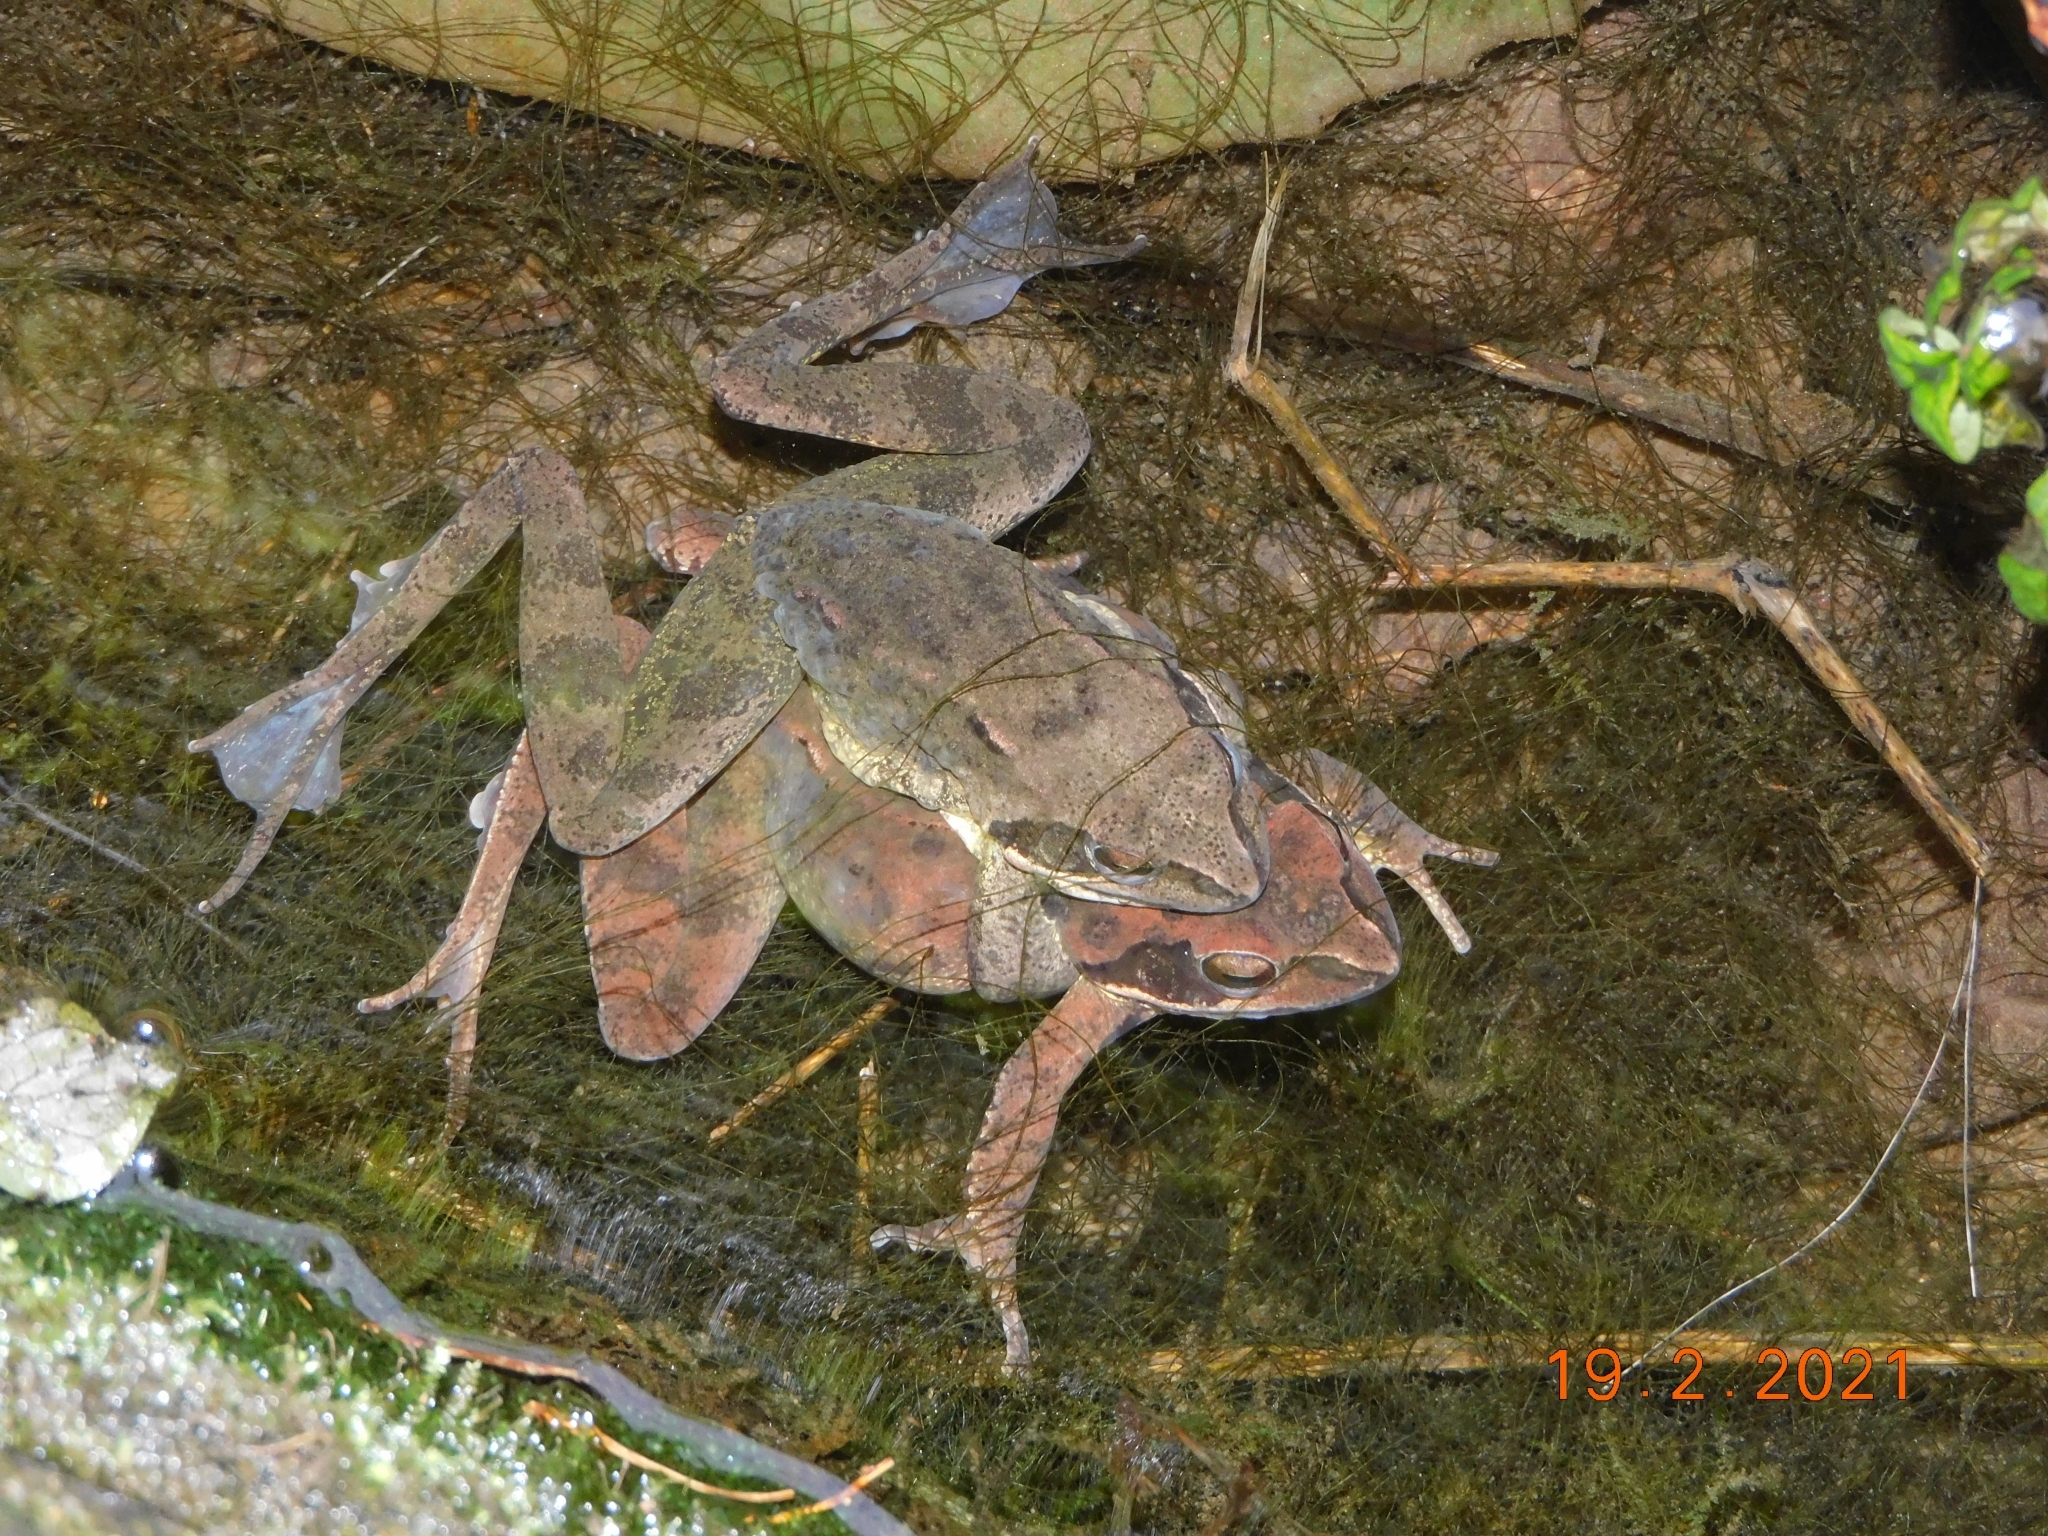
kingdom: Animalia
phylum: Chordata
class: Amphibia
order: Anura
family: Ranidae
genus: Rana
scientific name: Rana dalmatina
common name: Agile frog
